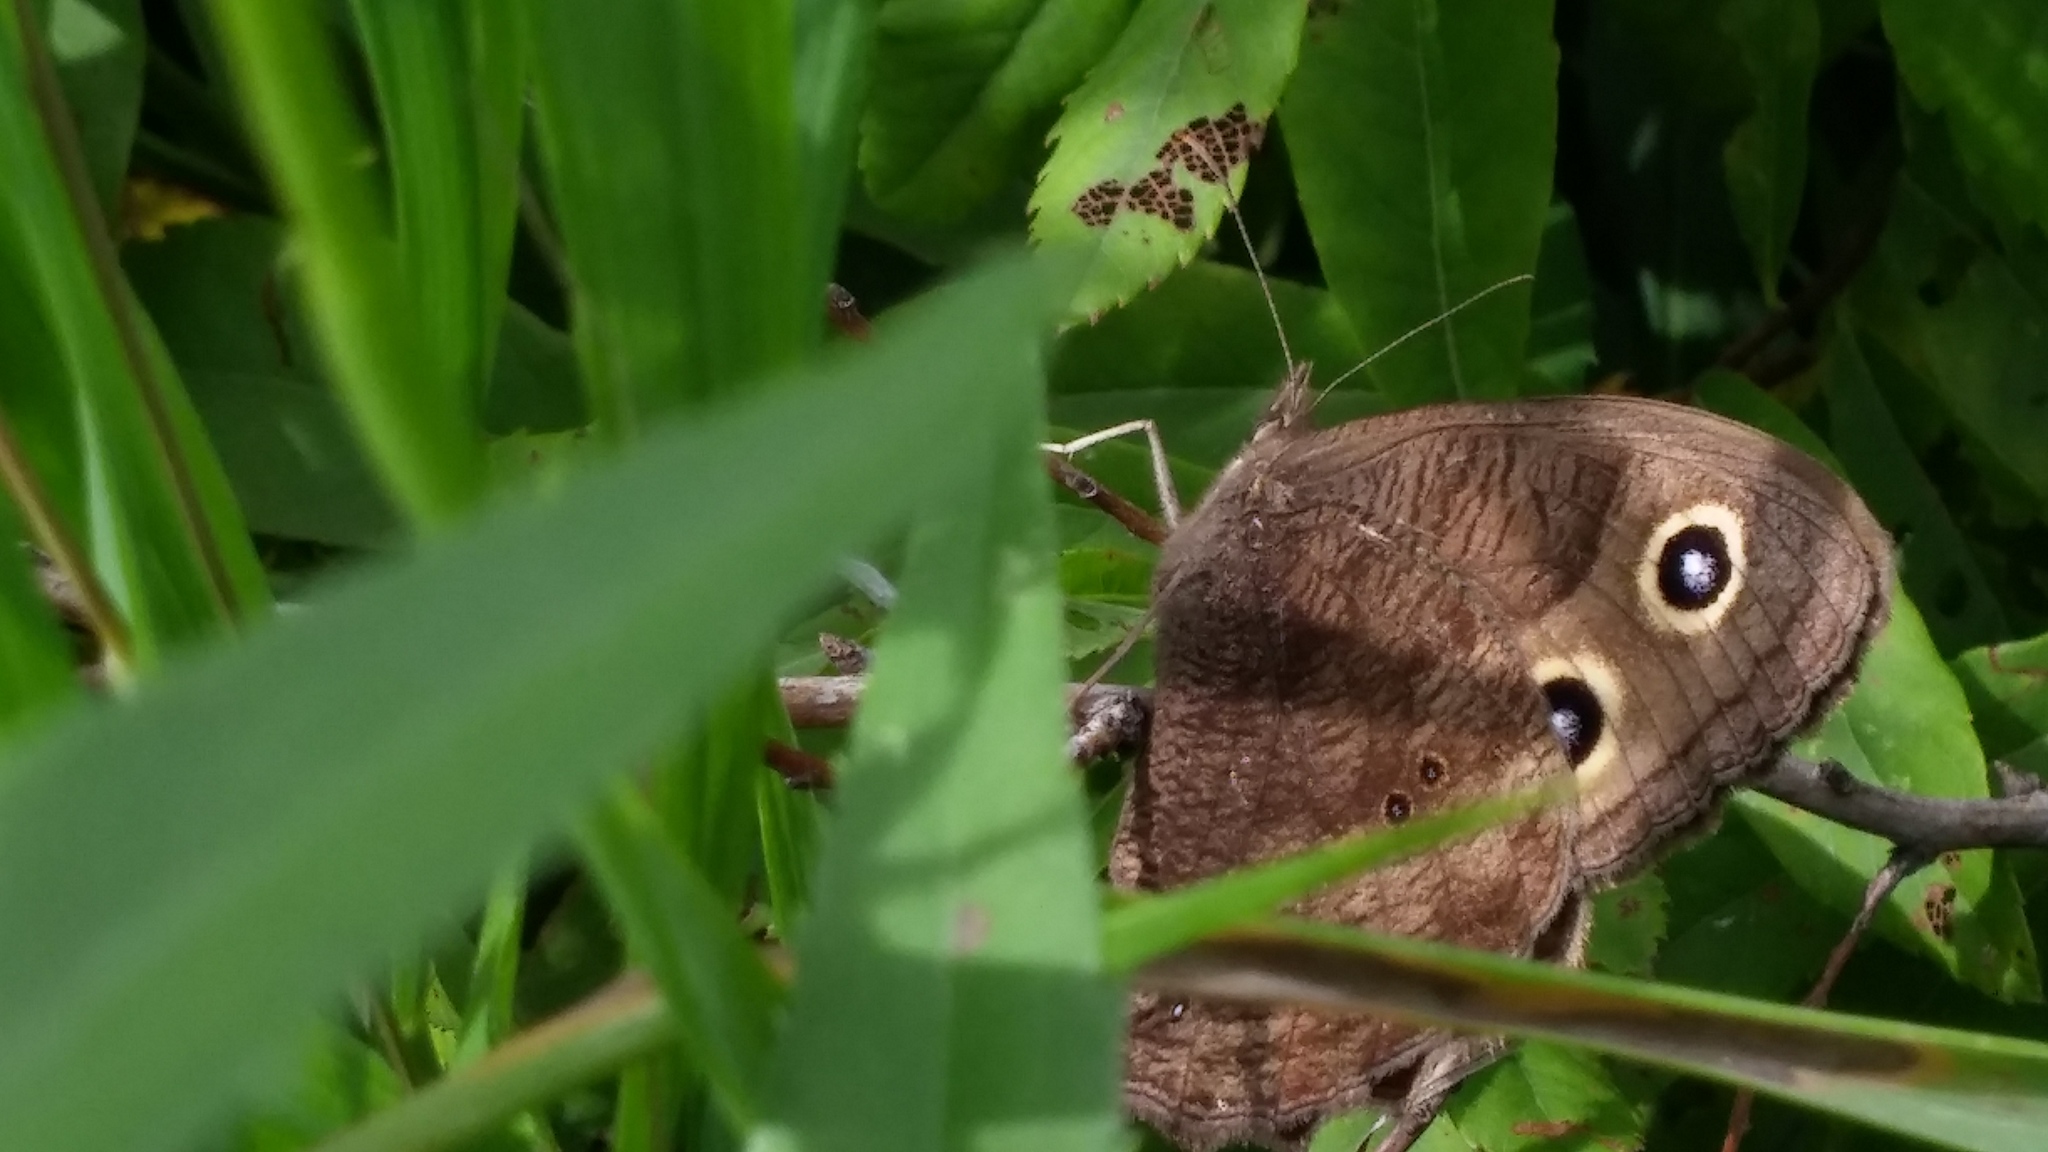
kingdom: Animalia
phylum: Arthropoda
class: Insecta
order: Lepidoptera
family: Nymphalidae
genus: Cercyonis
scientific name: Cercyonis pegala
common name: Common wood-nymph
